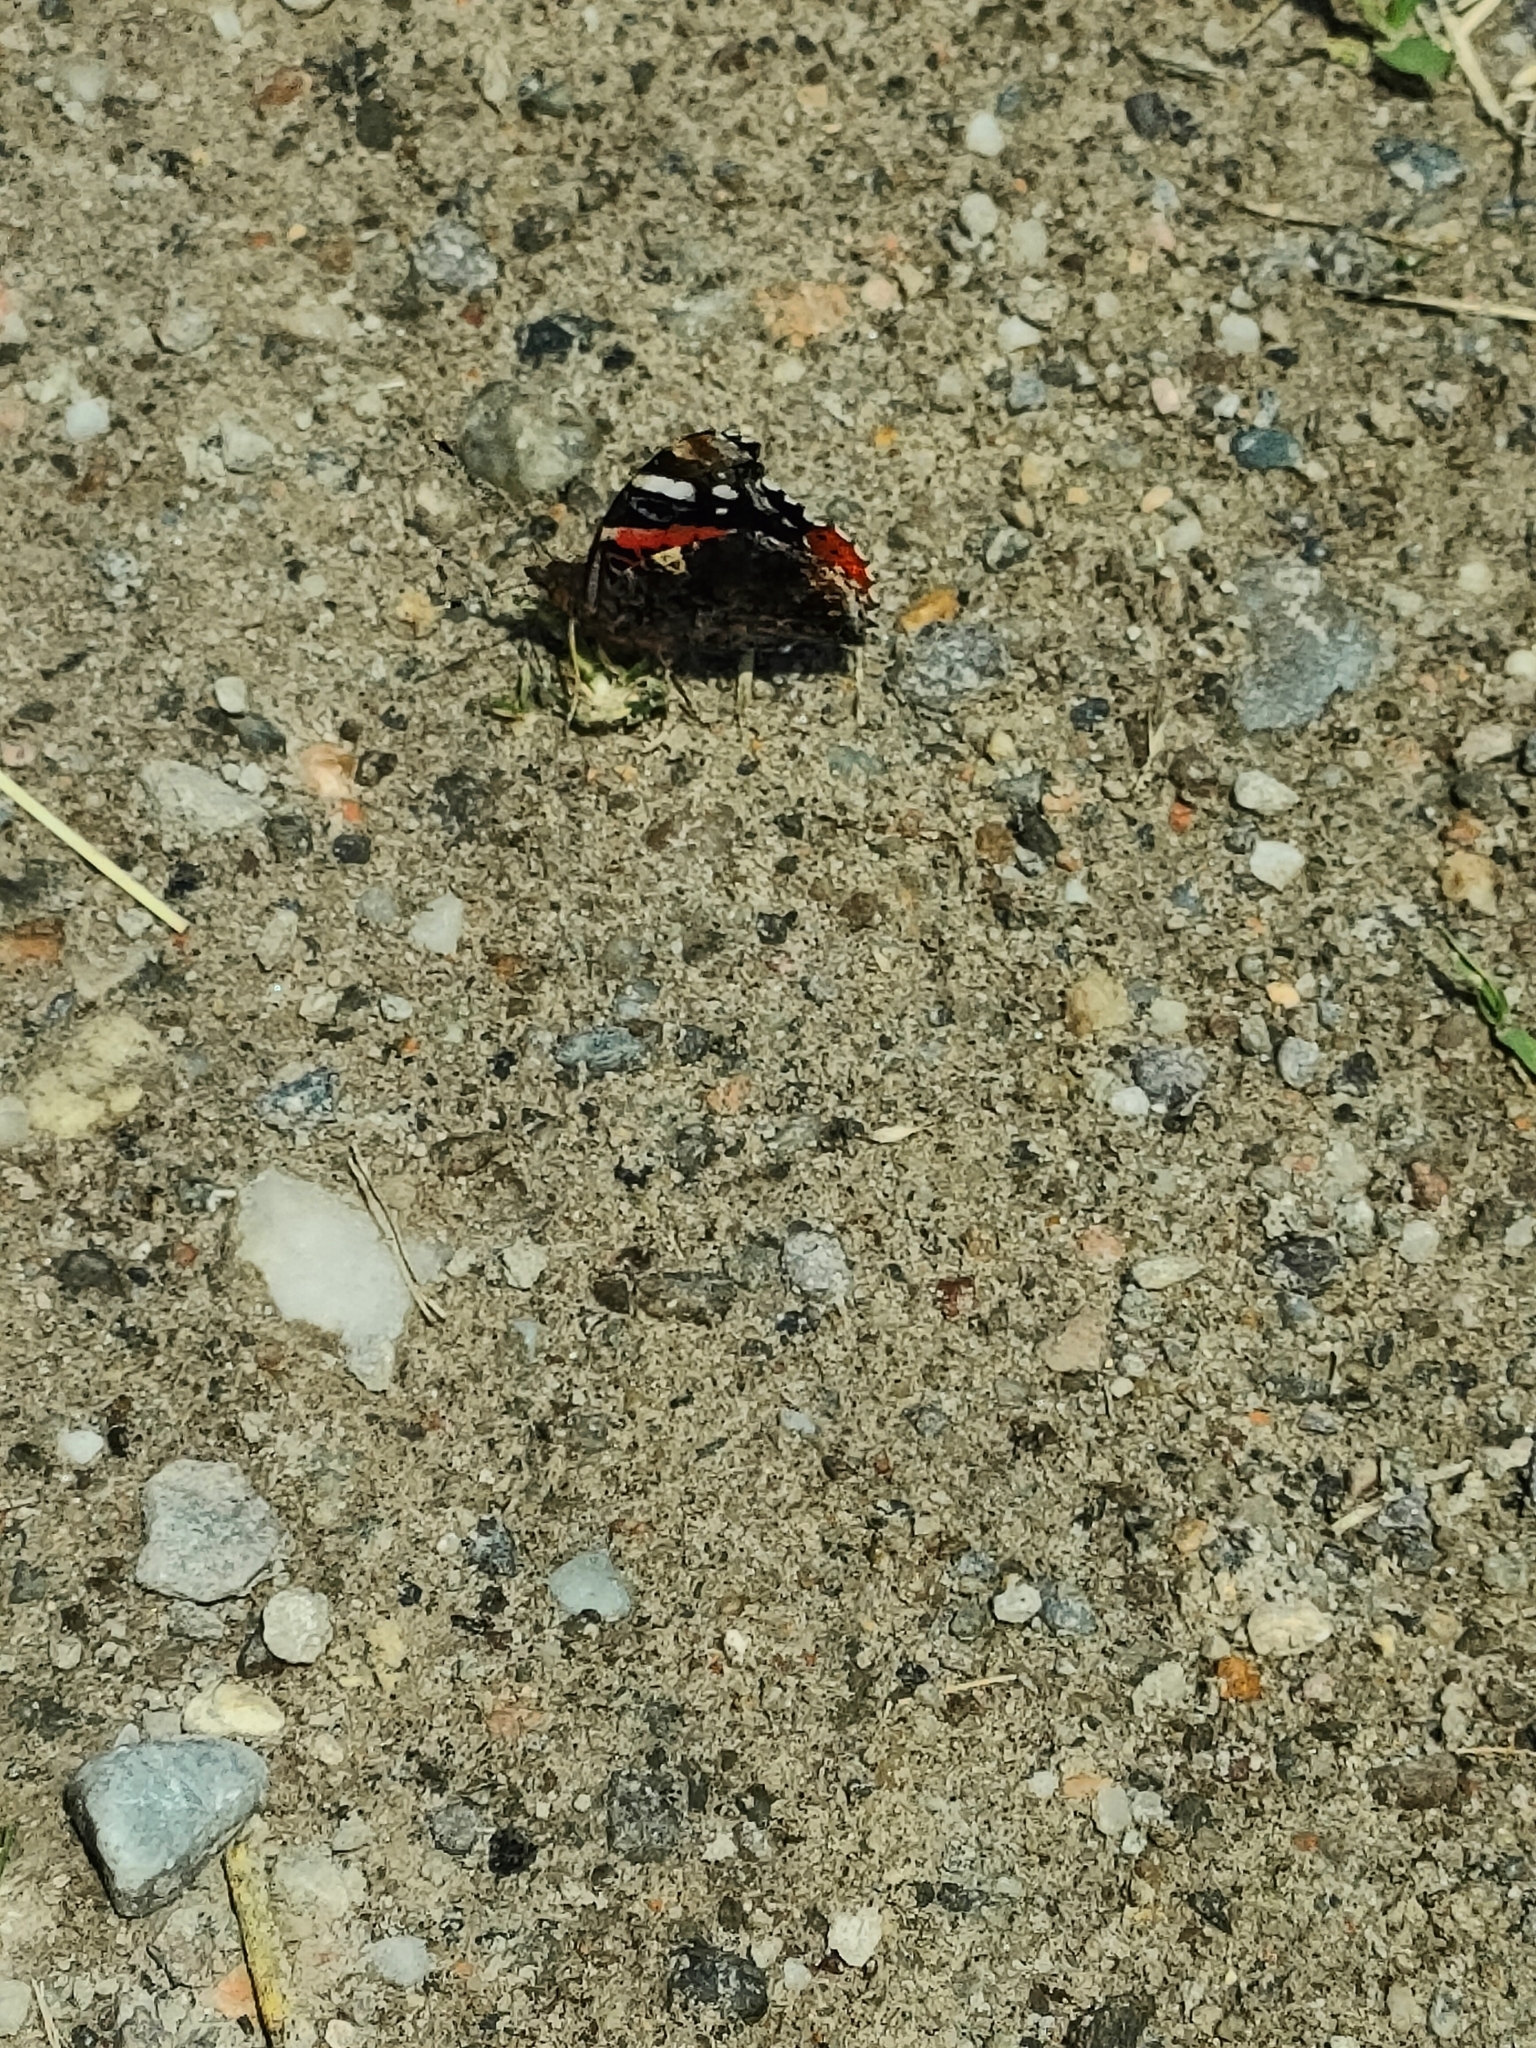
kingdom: Animalia
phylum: Arthropoda
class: Insecta
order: Lepidoptera
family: Nymphalidae
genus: Vanessa
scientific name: Vanessa atalanta
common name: Red admiral
